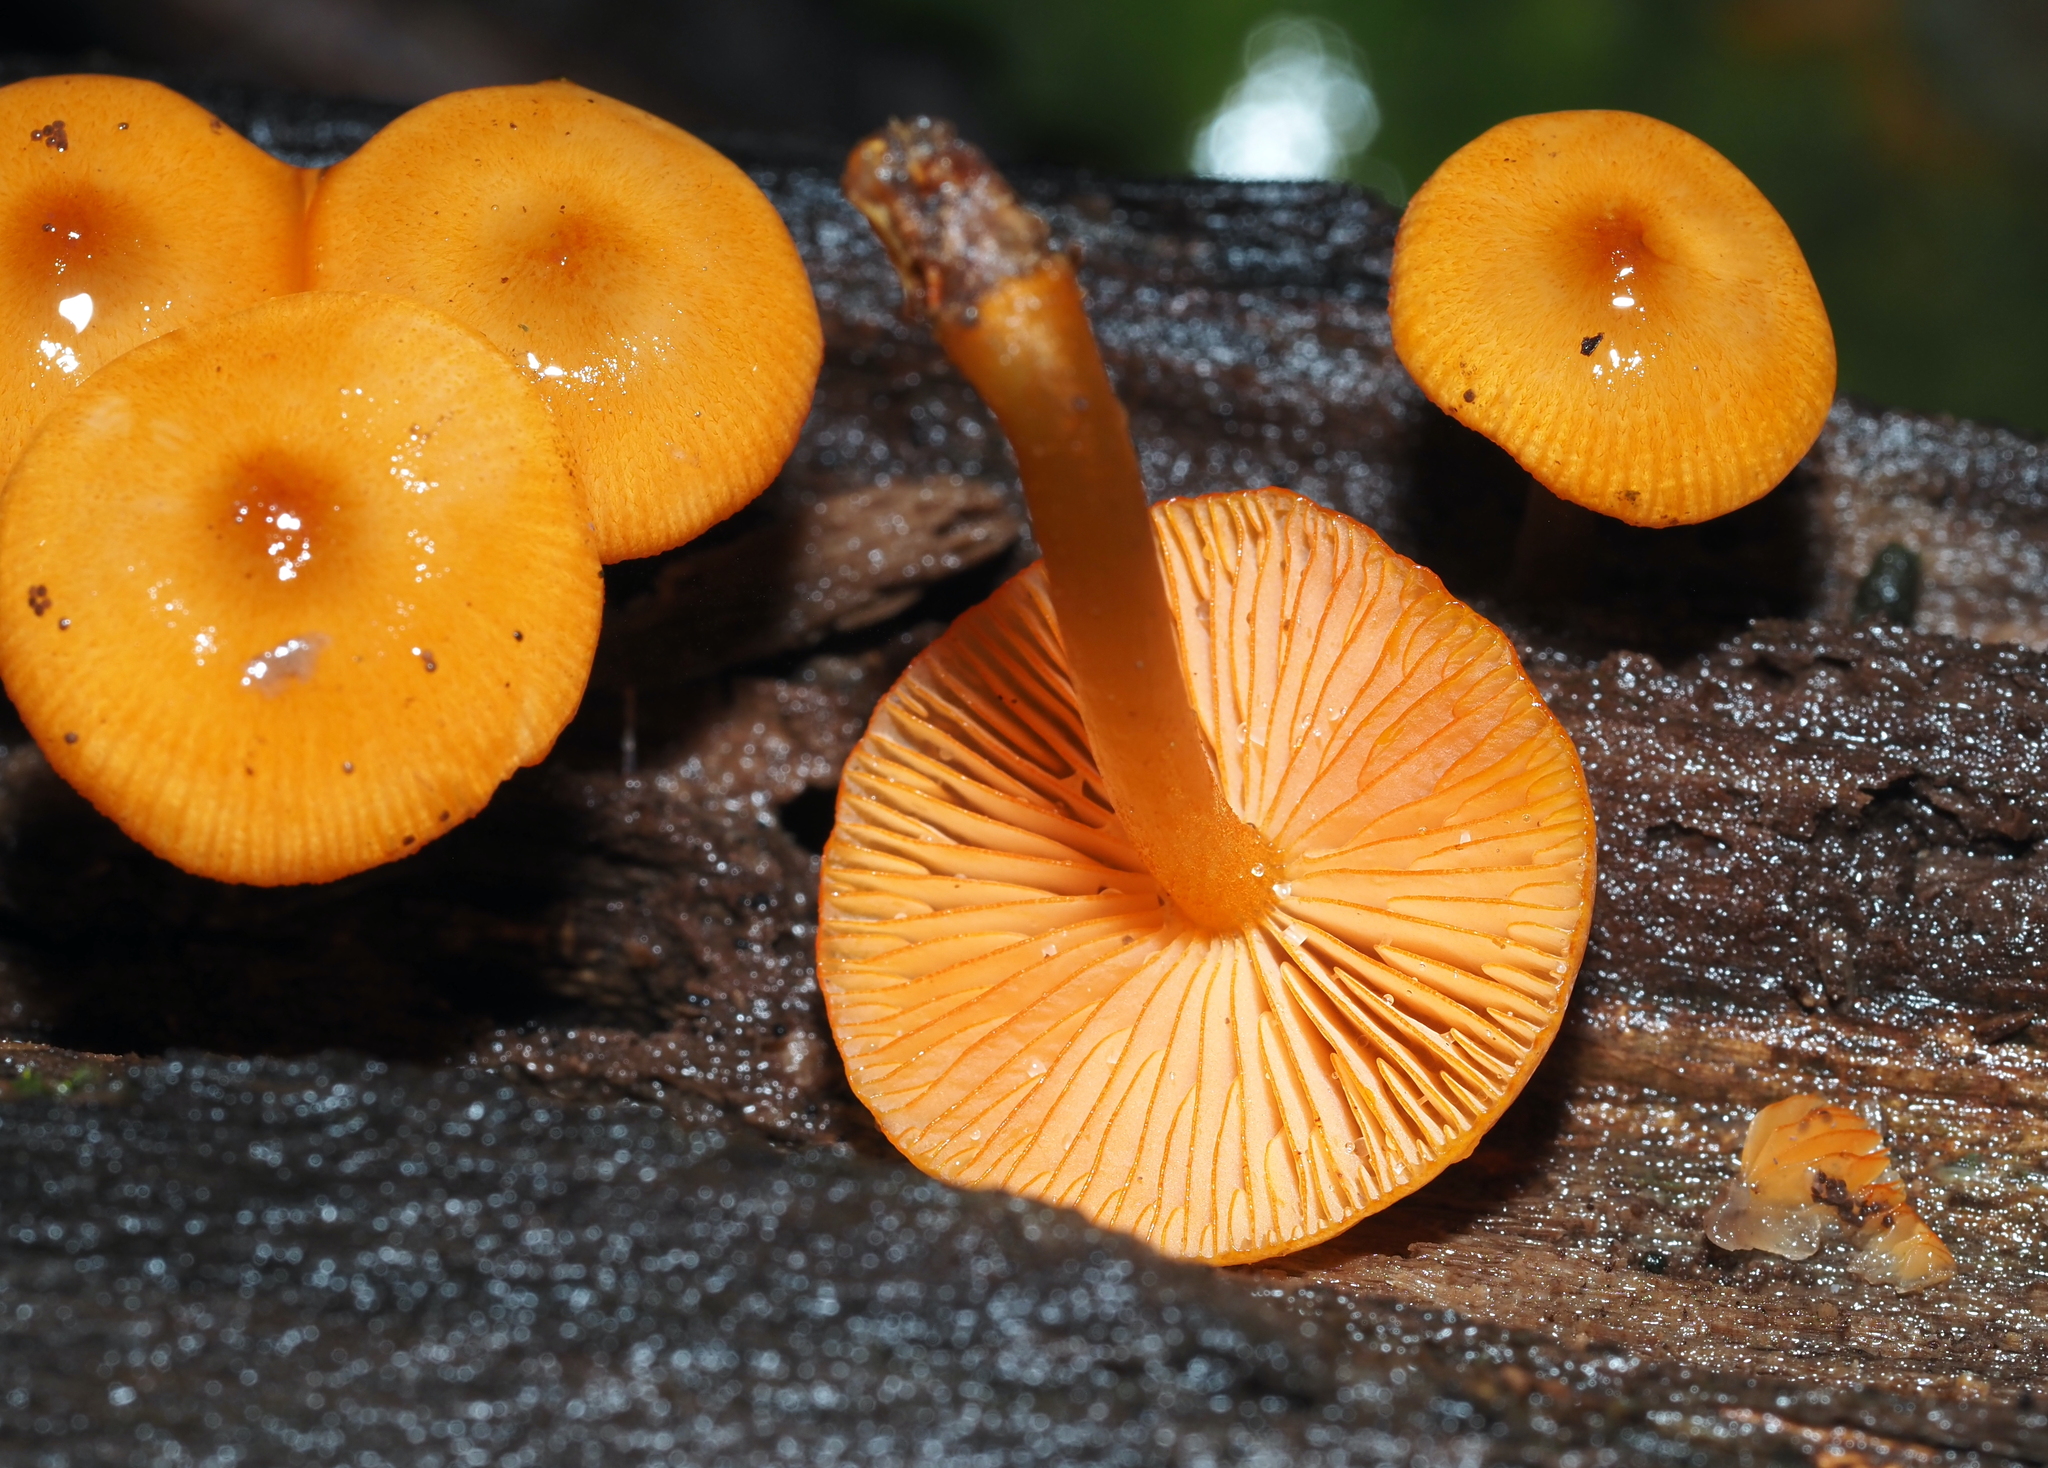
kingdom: Fungi
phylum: Basidiomycota
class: Agaricomycetes
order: Agaricales
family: Mycenaceae
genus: Mycena
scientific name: Mycena leaiana
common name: Orange mycena
